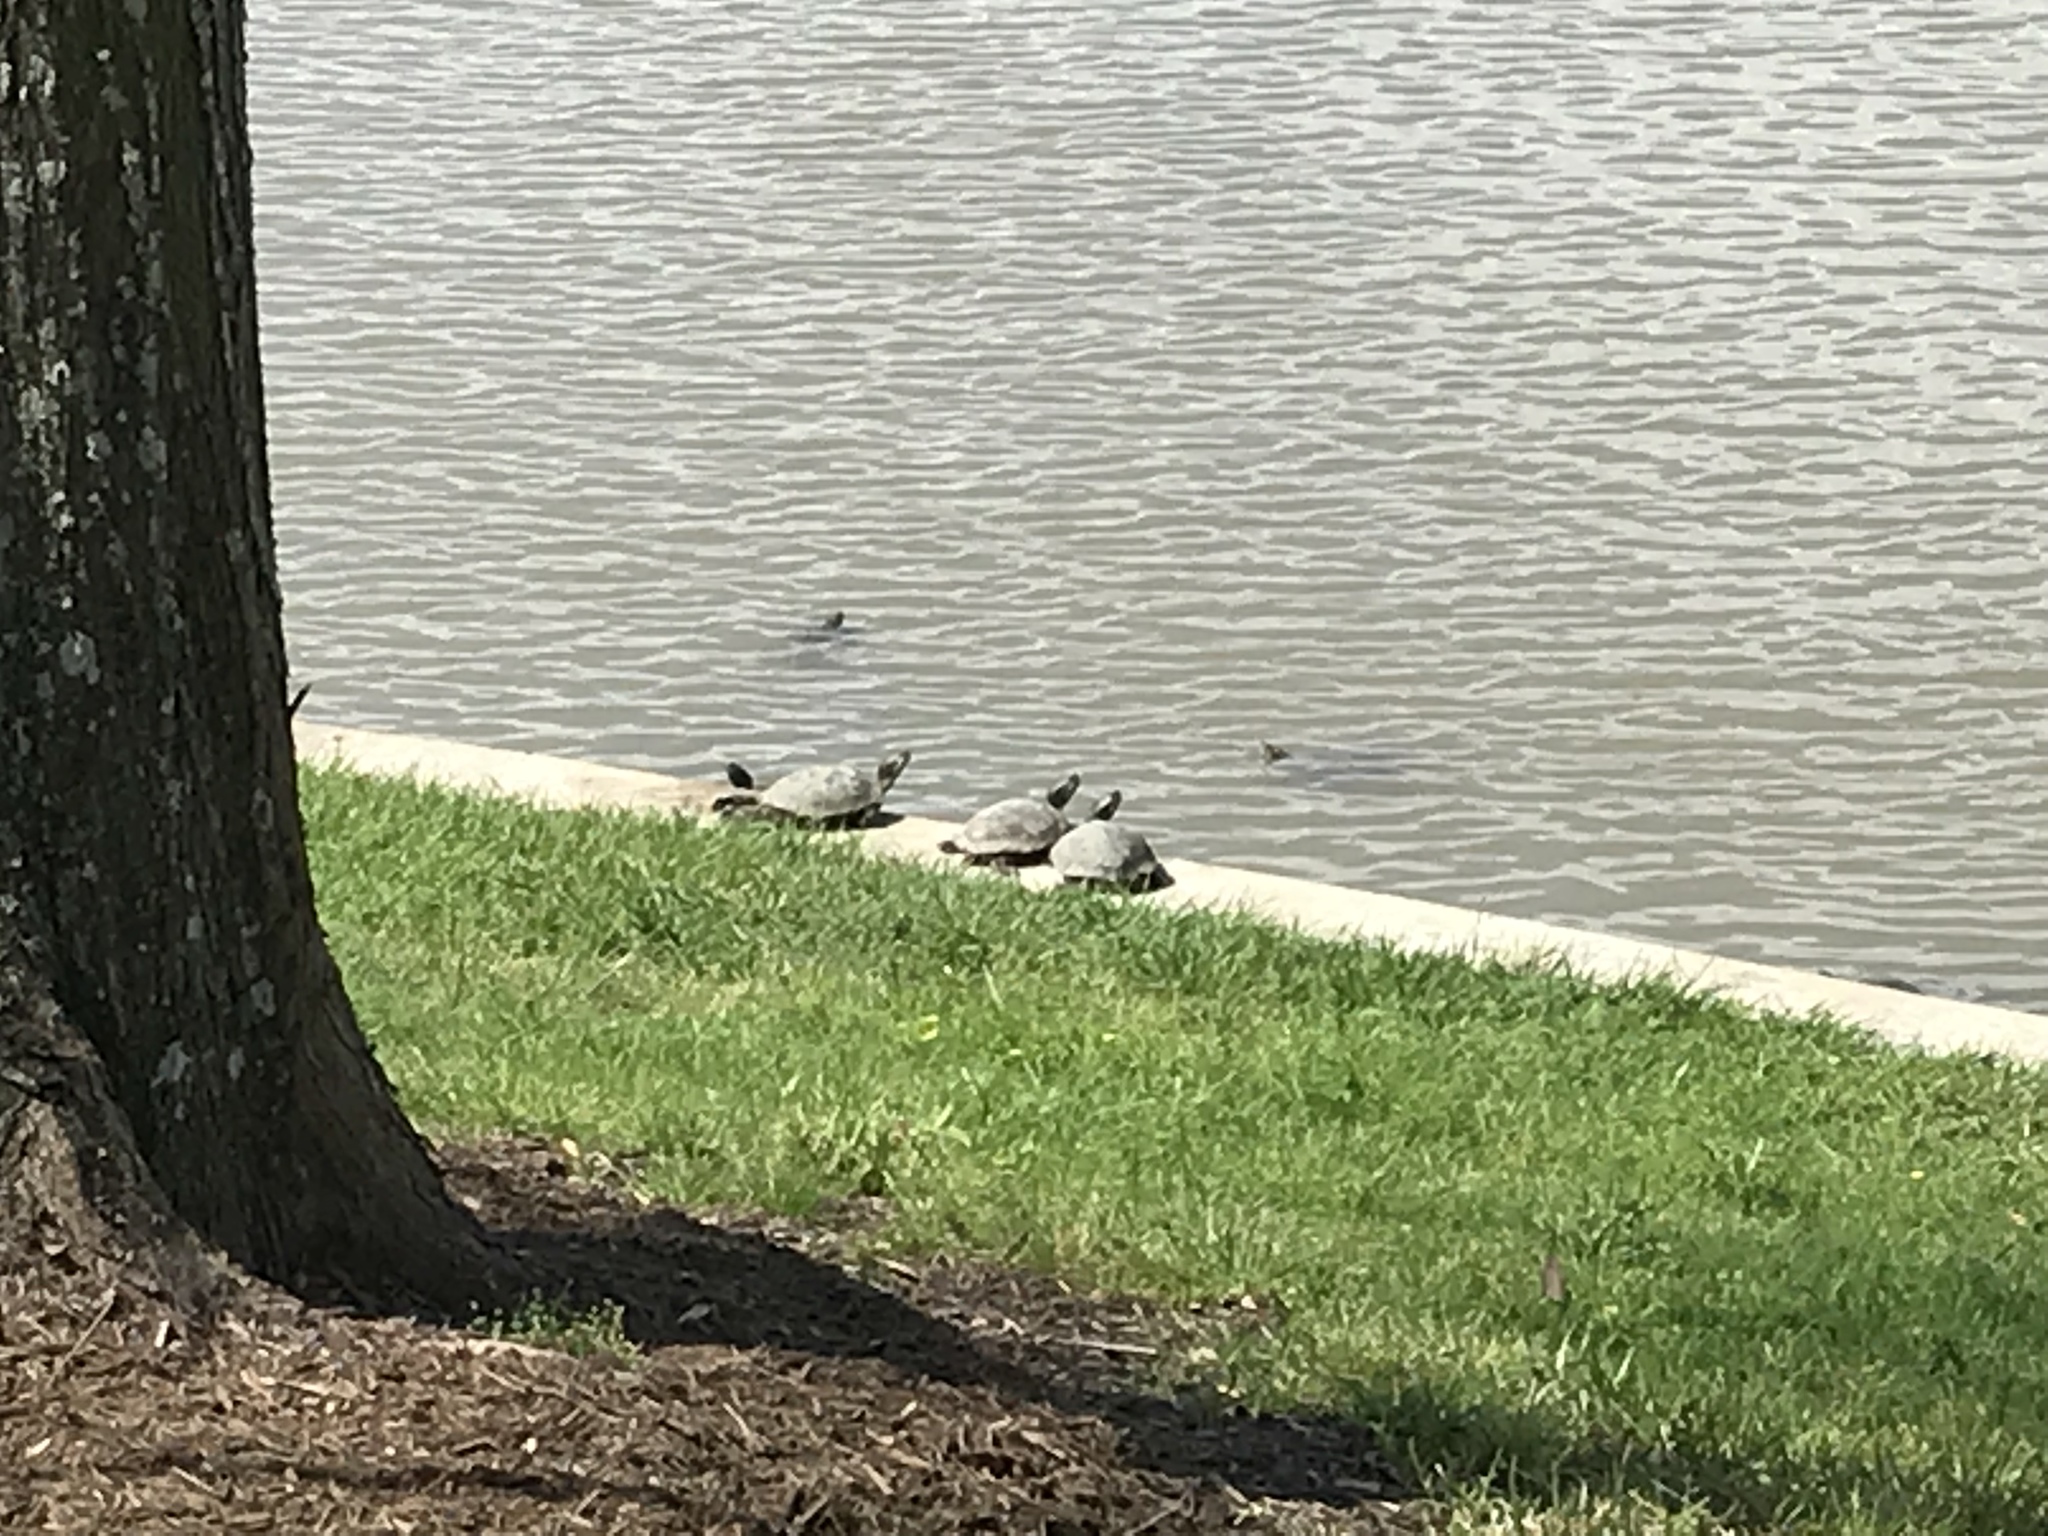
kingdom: Animalia
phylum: Chordata
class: Testudines
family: Emydidae
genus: Trachemys
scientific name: Trachemys scripta
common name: Slider
